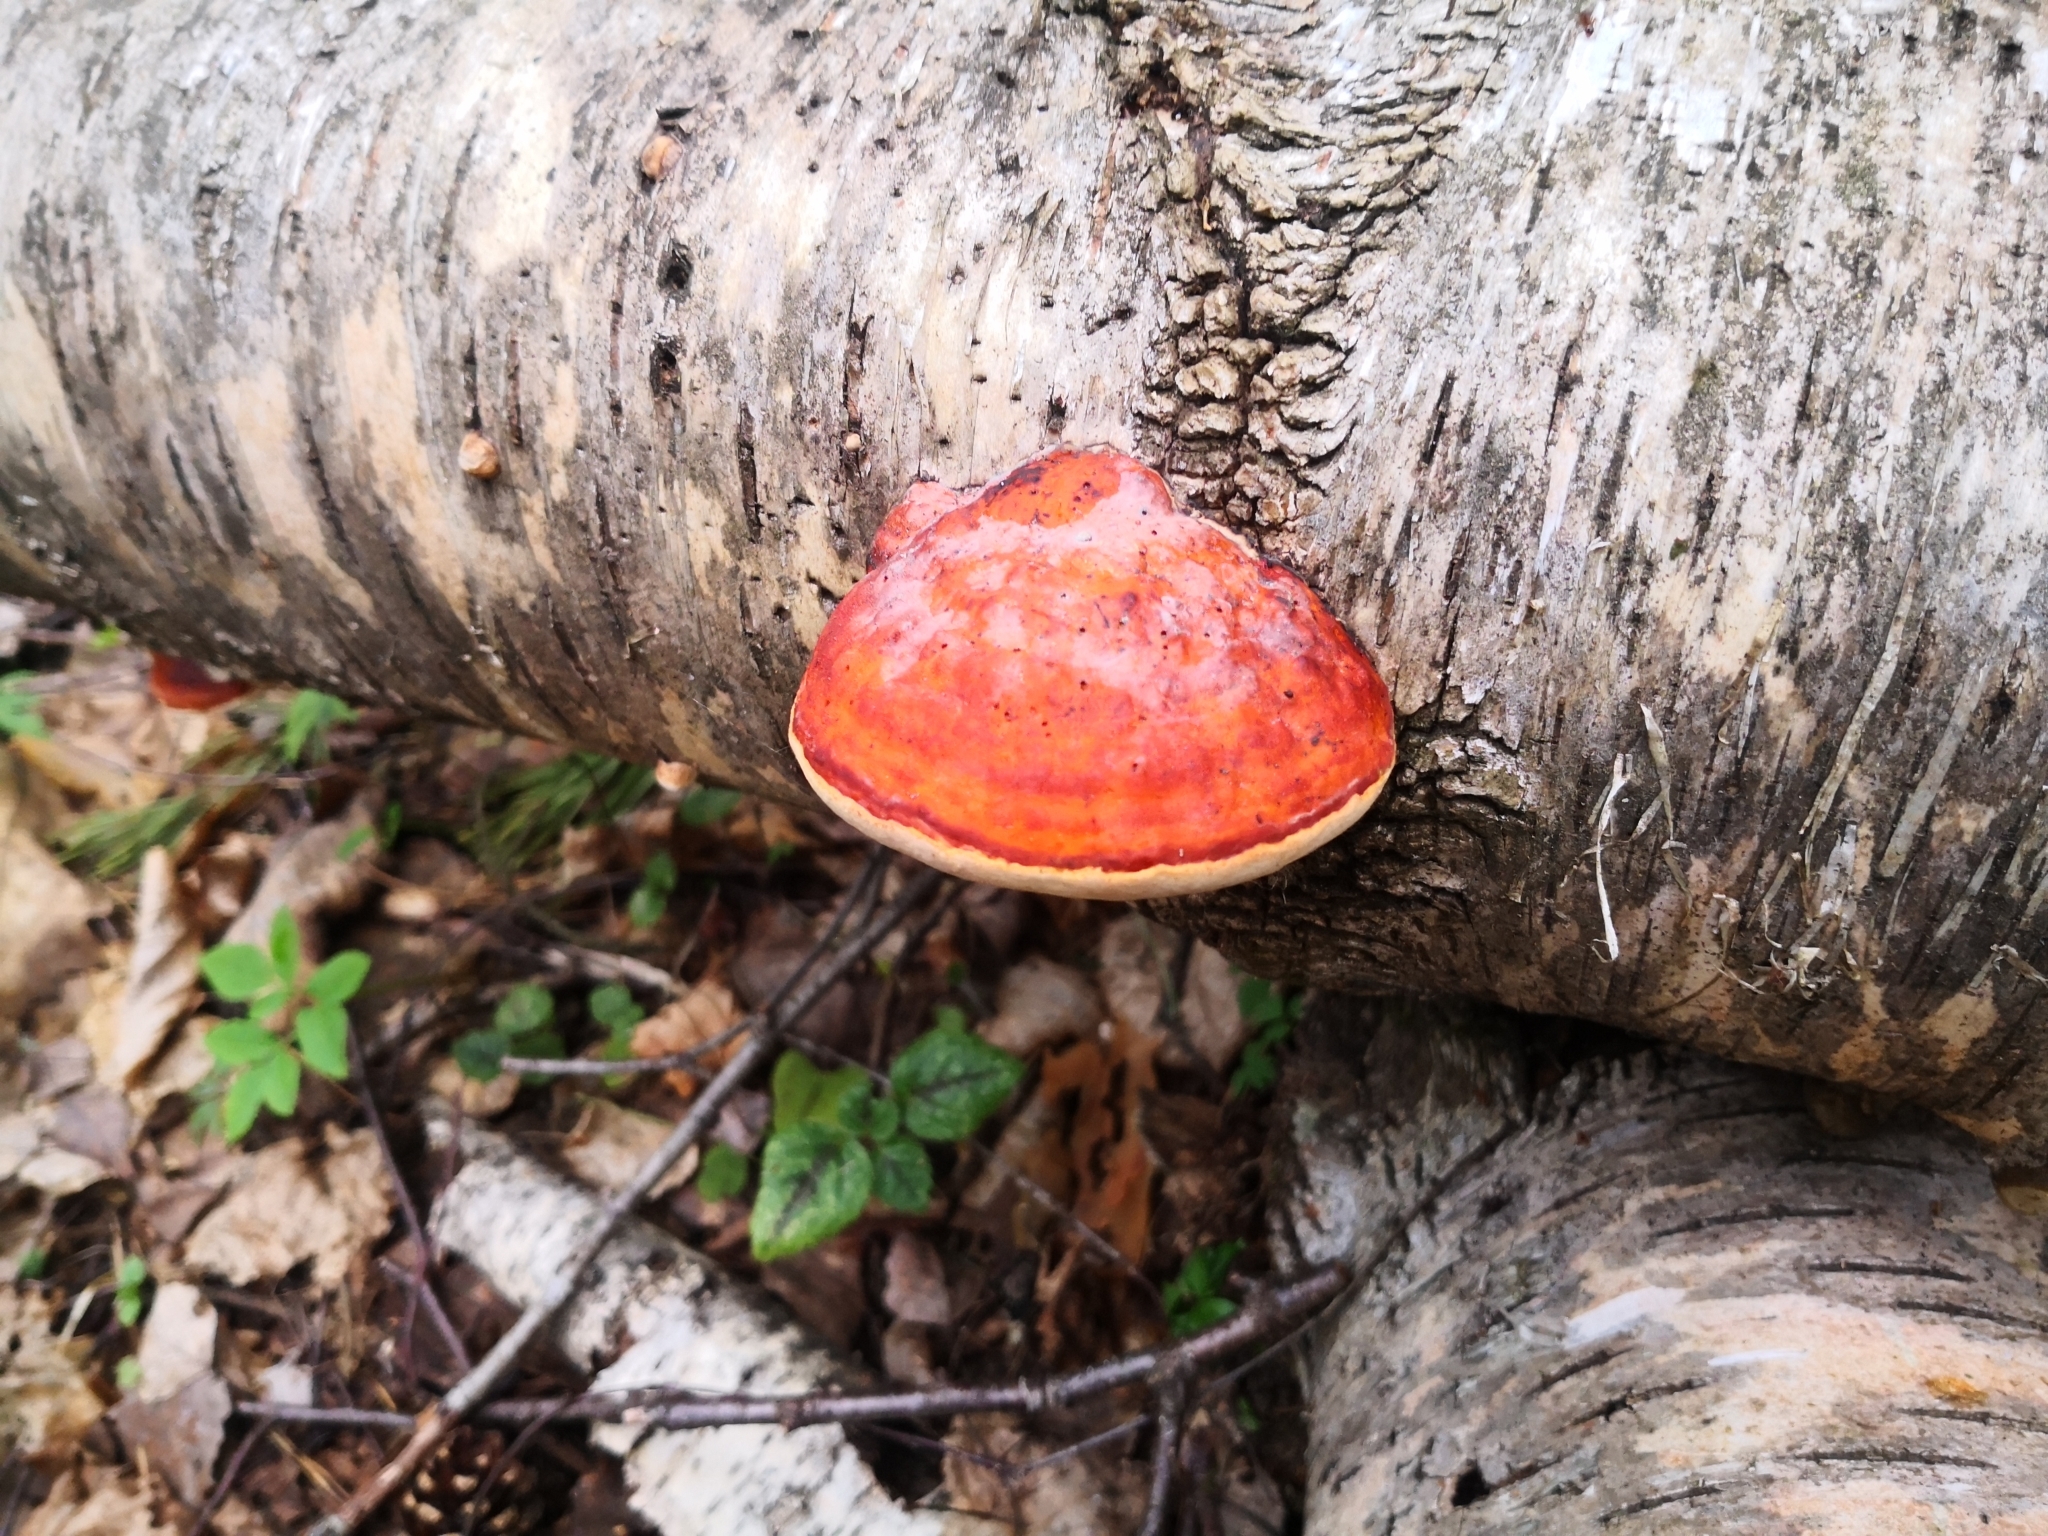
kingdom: Fungi
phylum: Basidiomycota
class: Agaricomycetes
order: Polyporales
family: Fomitopsidaceae
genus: Fomitopsis
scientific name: Fomitopsis pinicola
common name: Red-belted bracket
